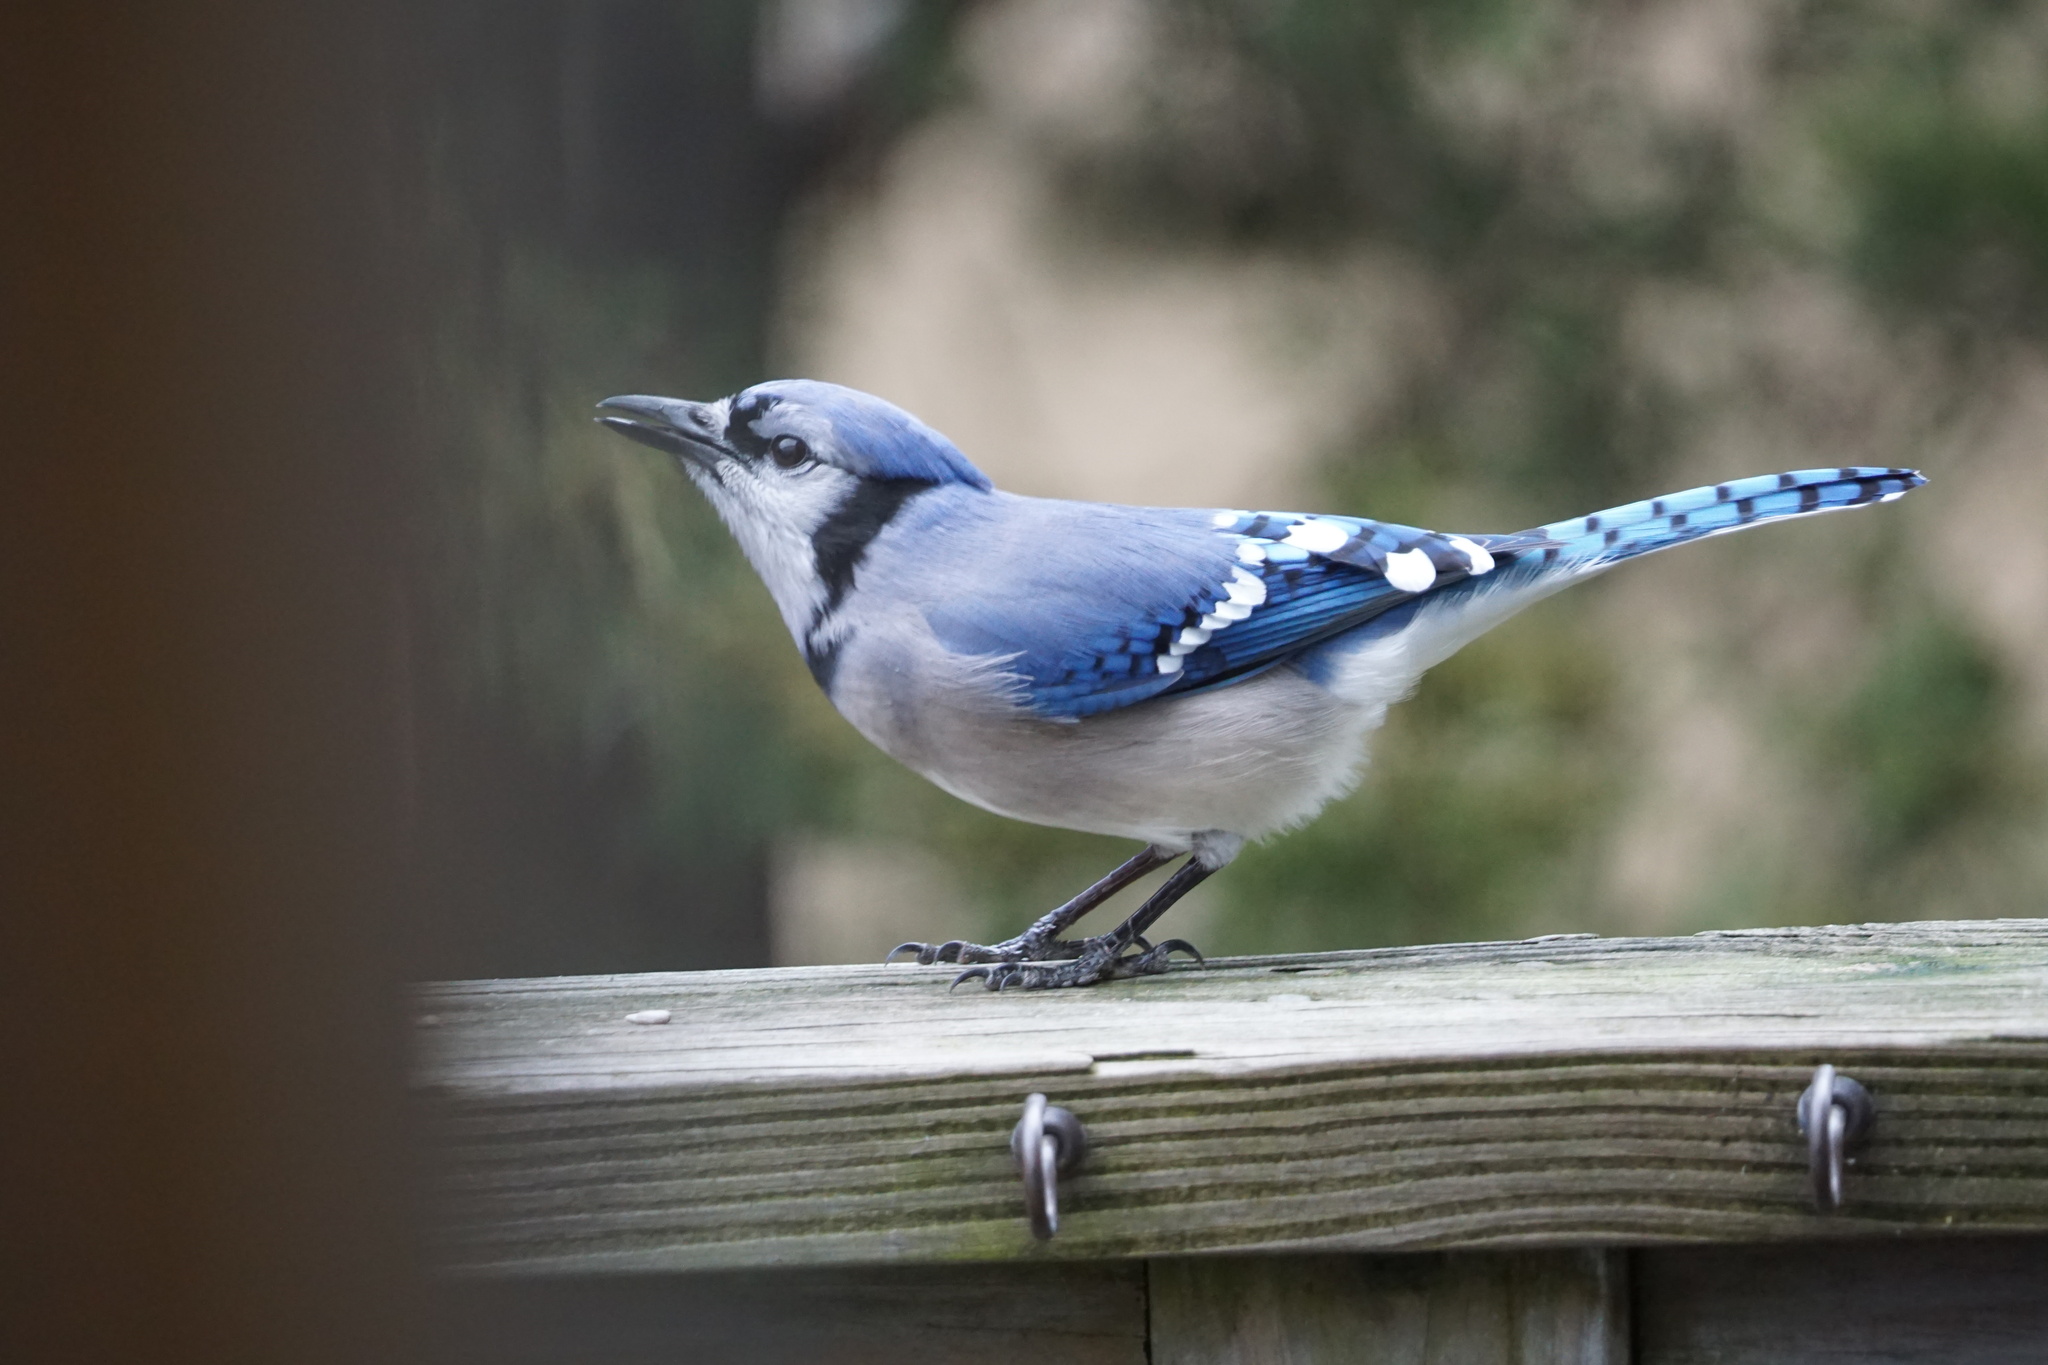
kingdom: Animalia
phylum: Chordata
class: Aves
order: Passeriformes
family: Corvidae
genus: Cyanocitta
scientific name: Cyanocitta cristata
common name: Blue jay
